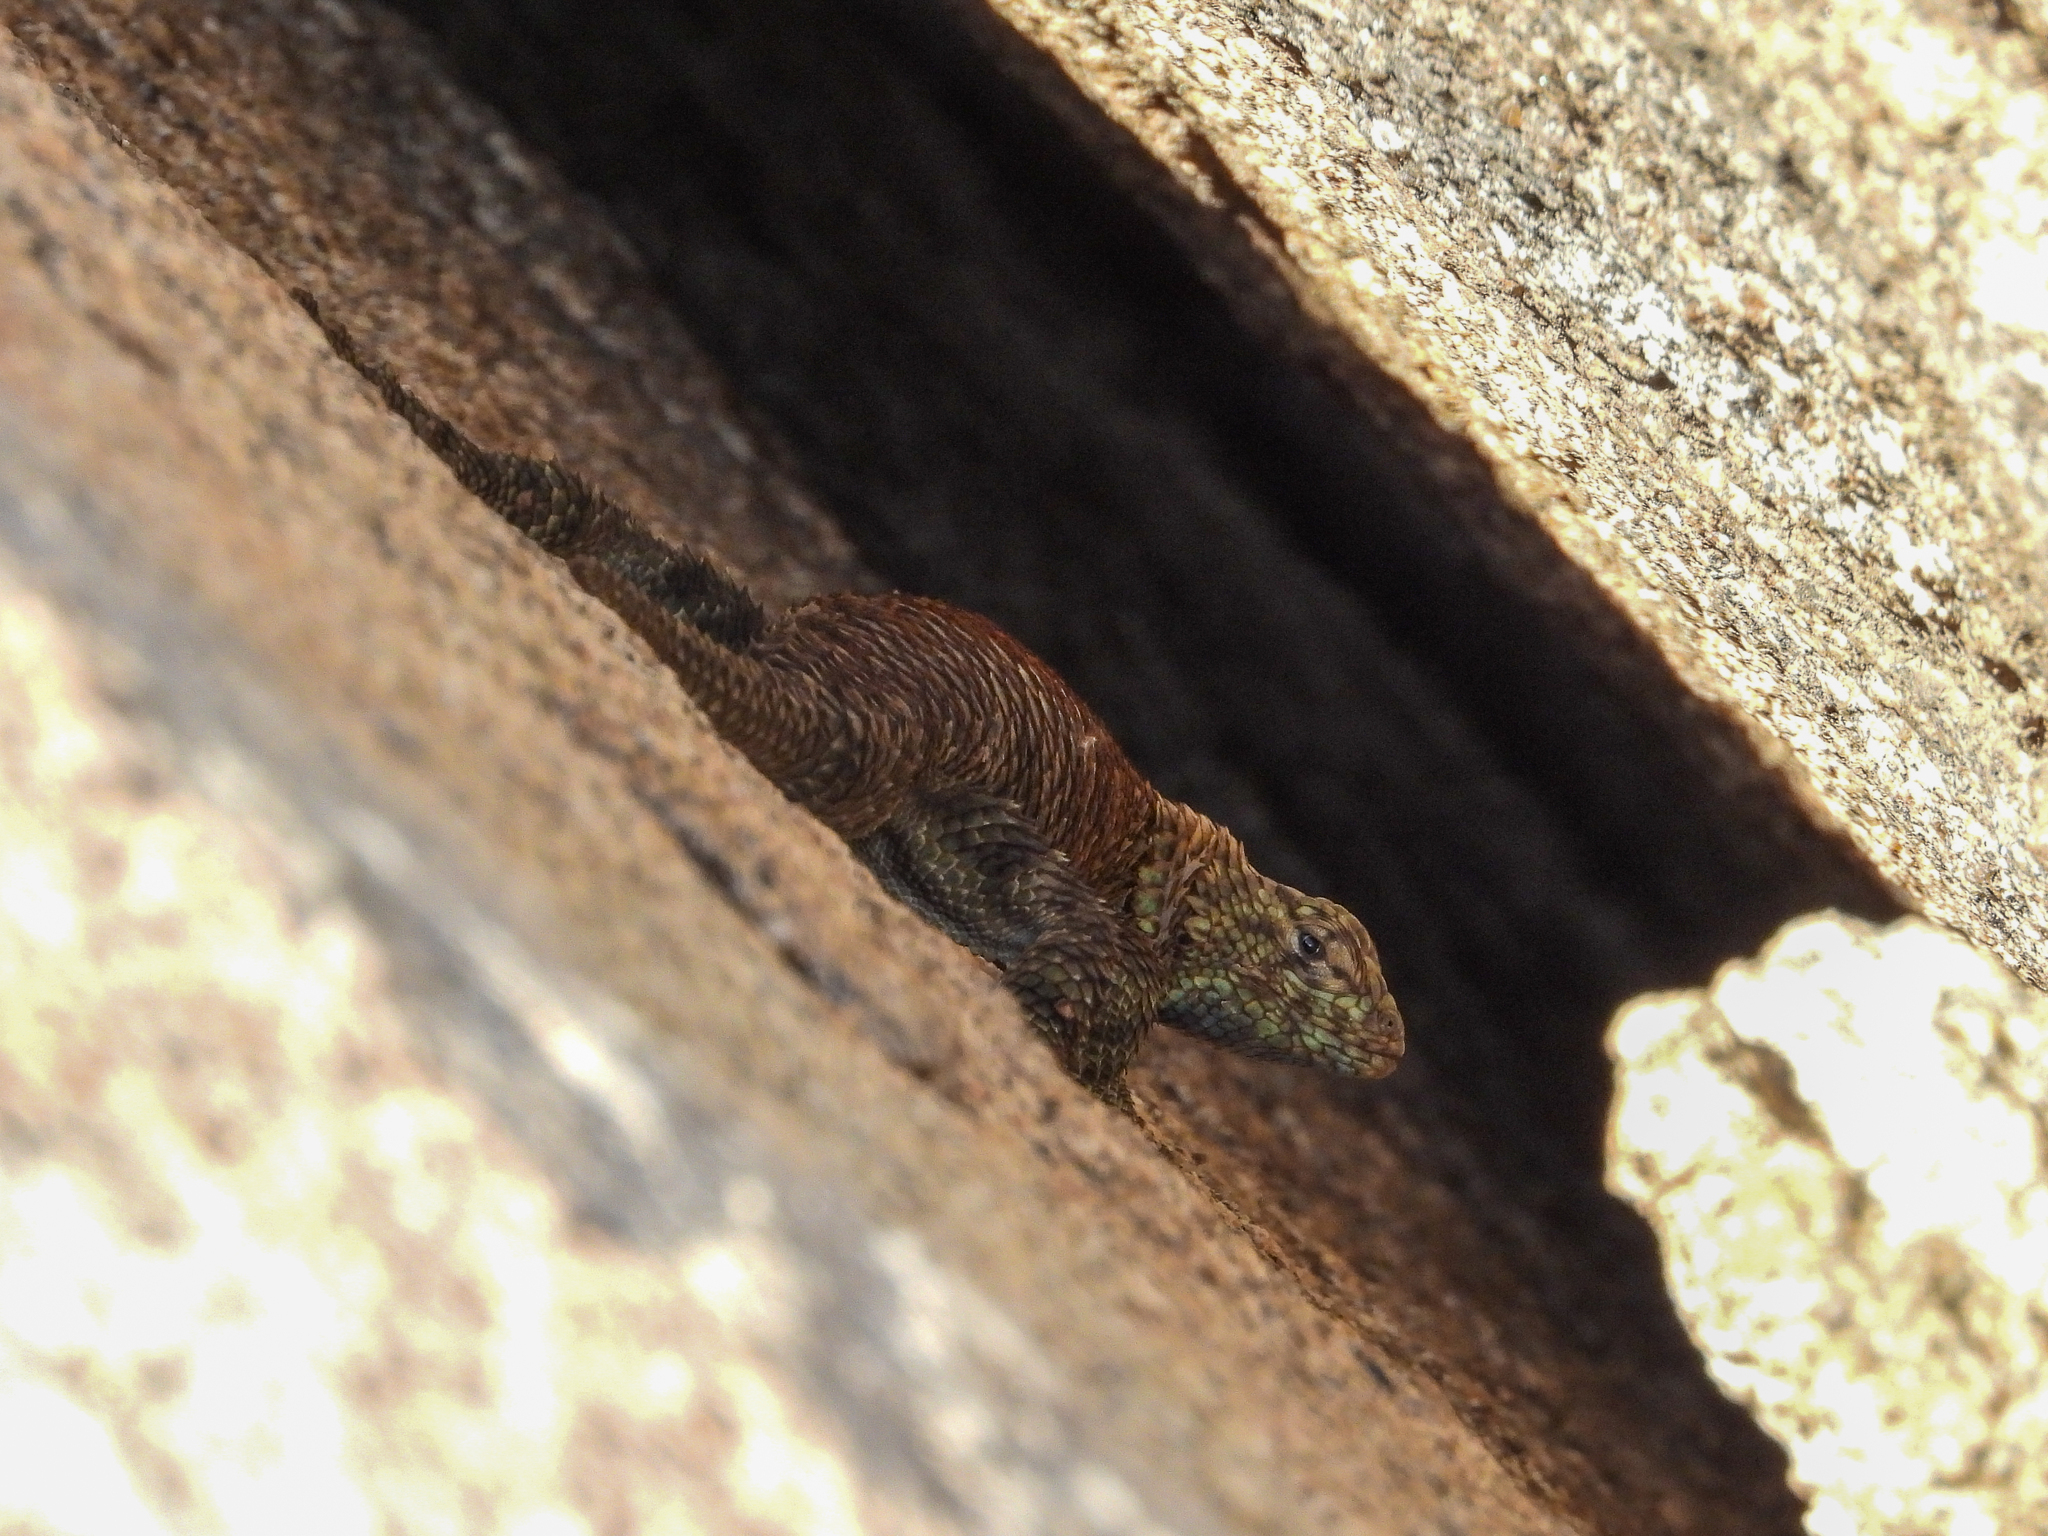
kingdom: Animalia
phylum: Chordata
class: Squamata
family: Phrynosomatidae
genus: Sceloporus
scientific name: Sceloporus orcutti
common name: Granite spiny lizard
